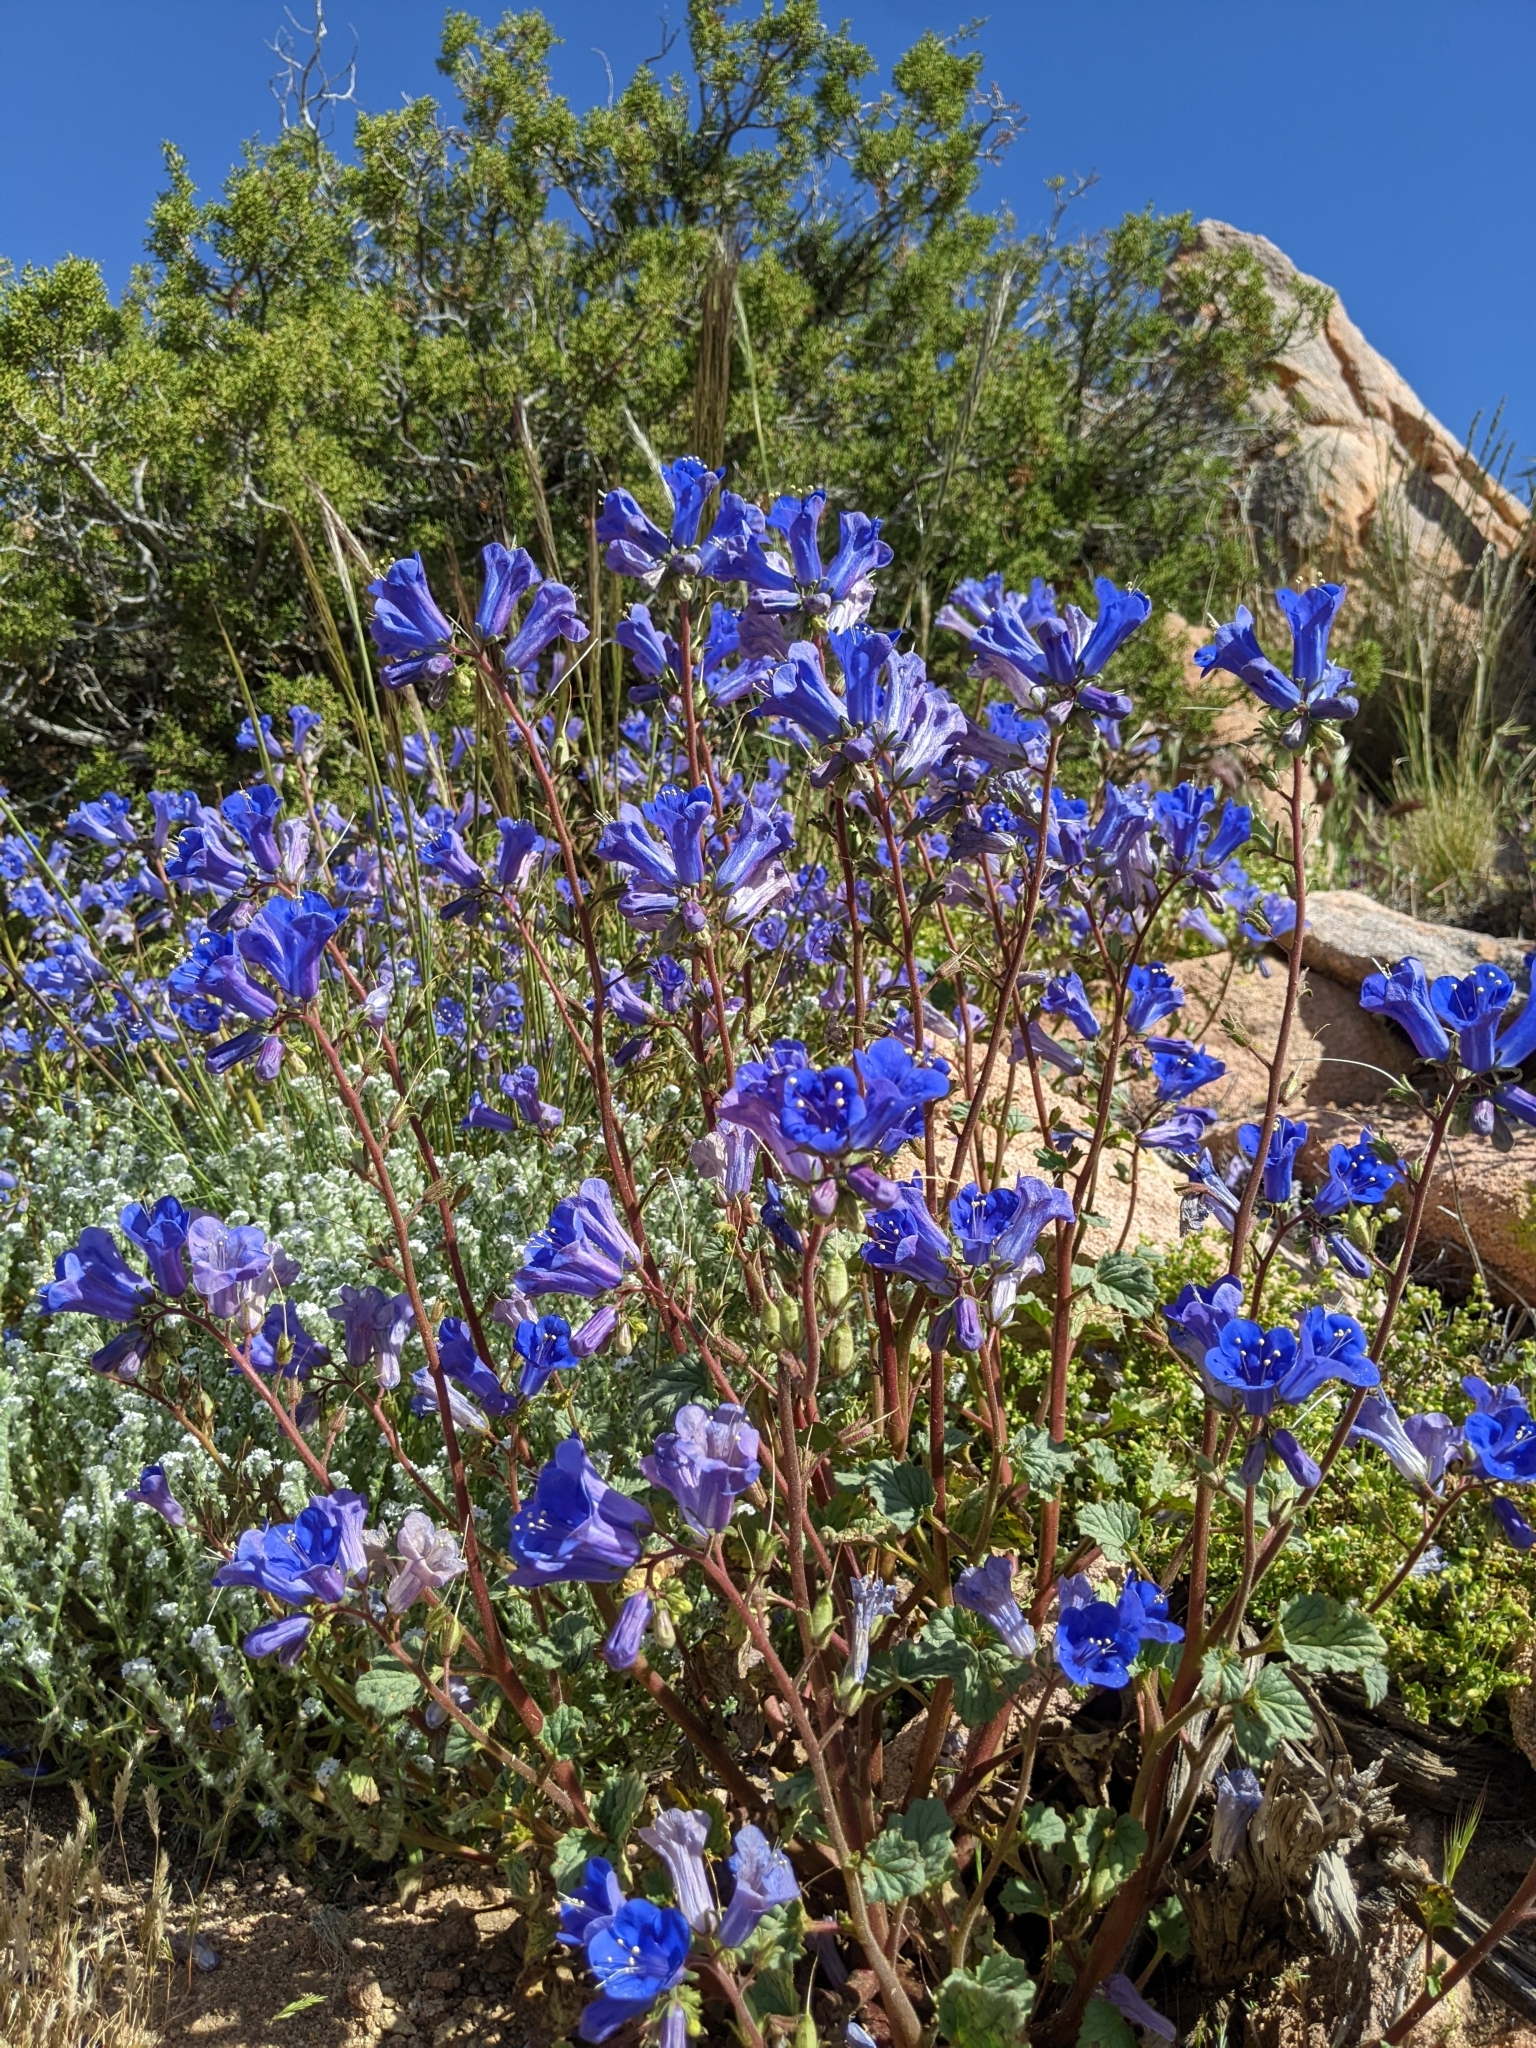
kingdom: Plantae
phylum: Tracheophyta
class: Magnoliopsida
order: Boraginales
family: Hydrophyllaceae
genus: Phacelia
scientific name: Phacelia campanularia
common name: California bluebell
